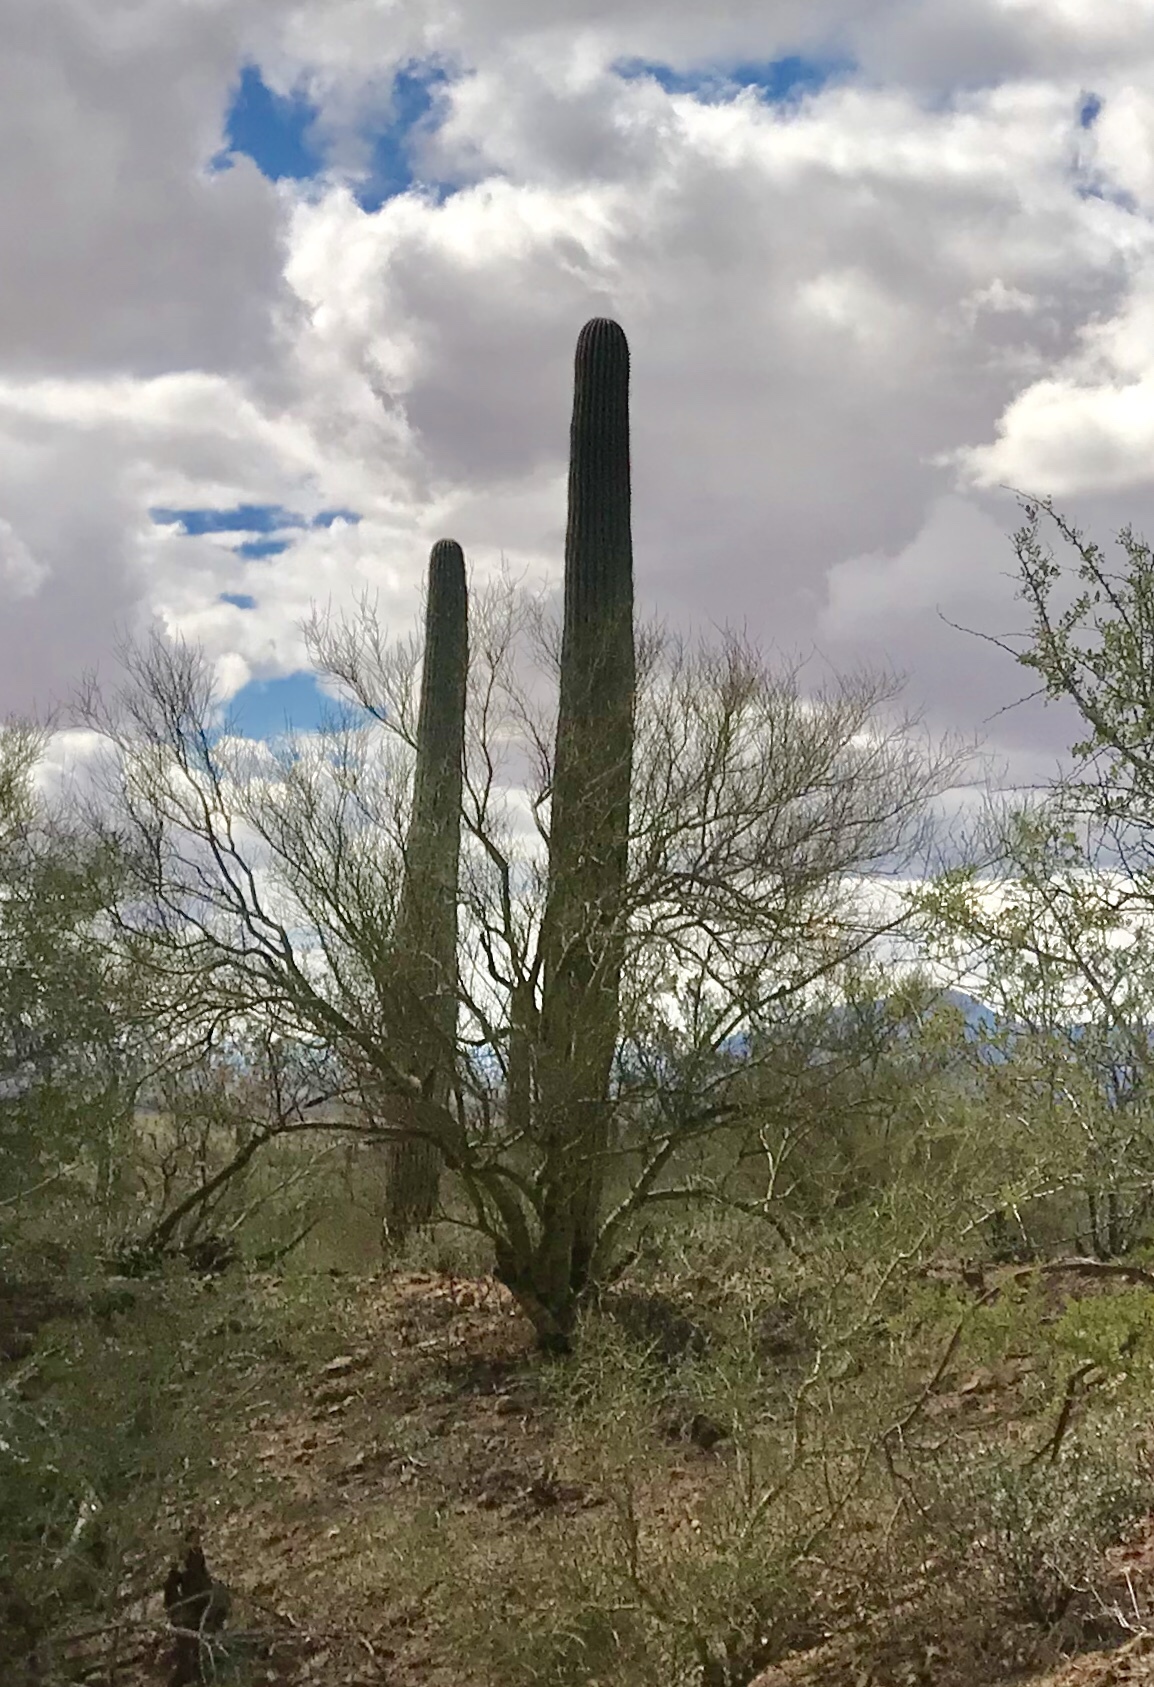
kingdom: Plantae
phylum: Tracheophyta
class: Magnoliopsida
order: Caryophyllales
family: Cactaceae
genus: Carnegiea
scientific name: Carnegiea gigantea
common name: Saguaro
